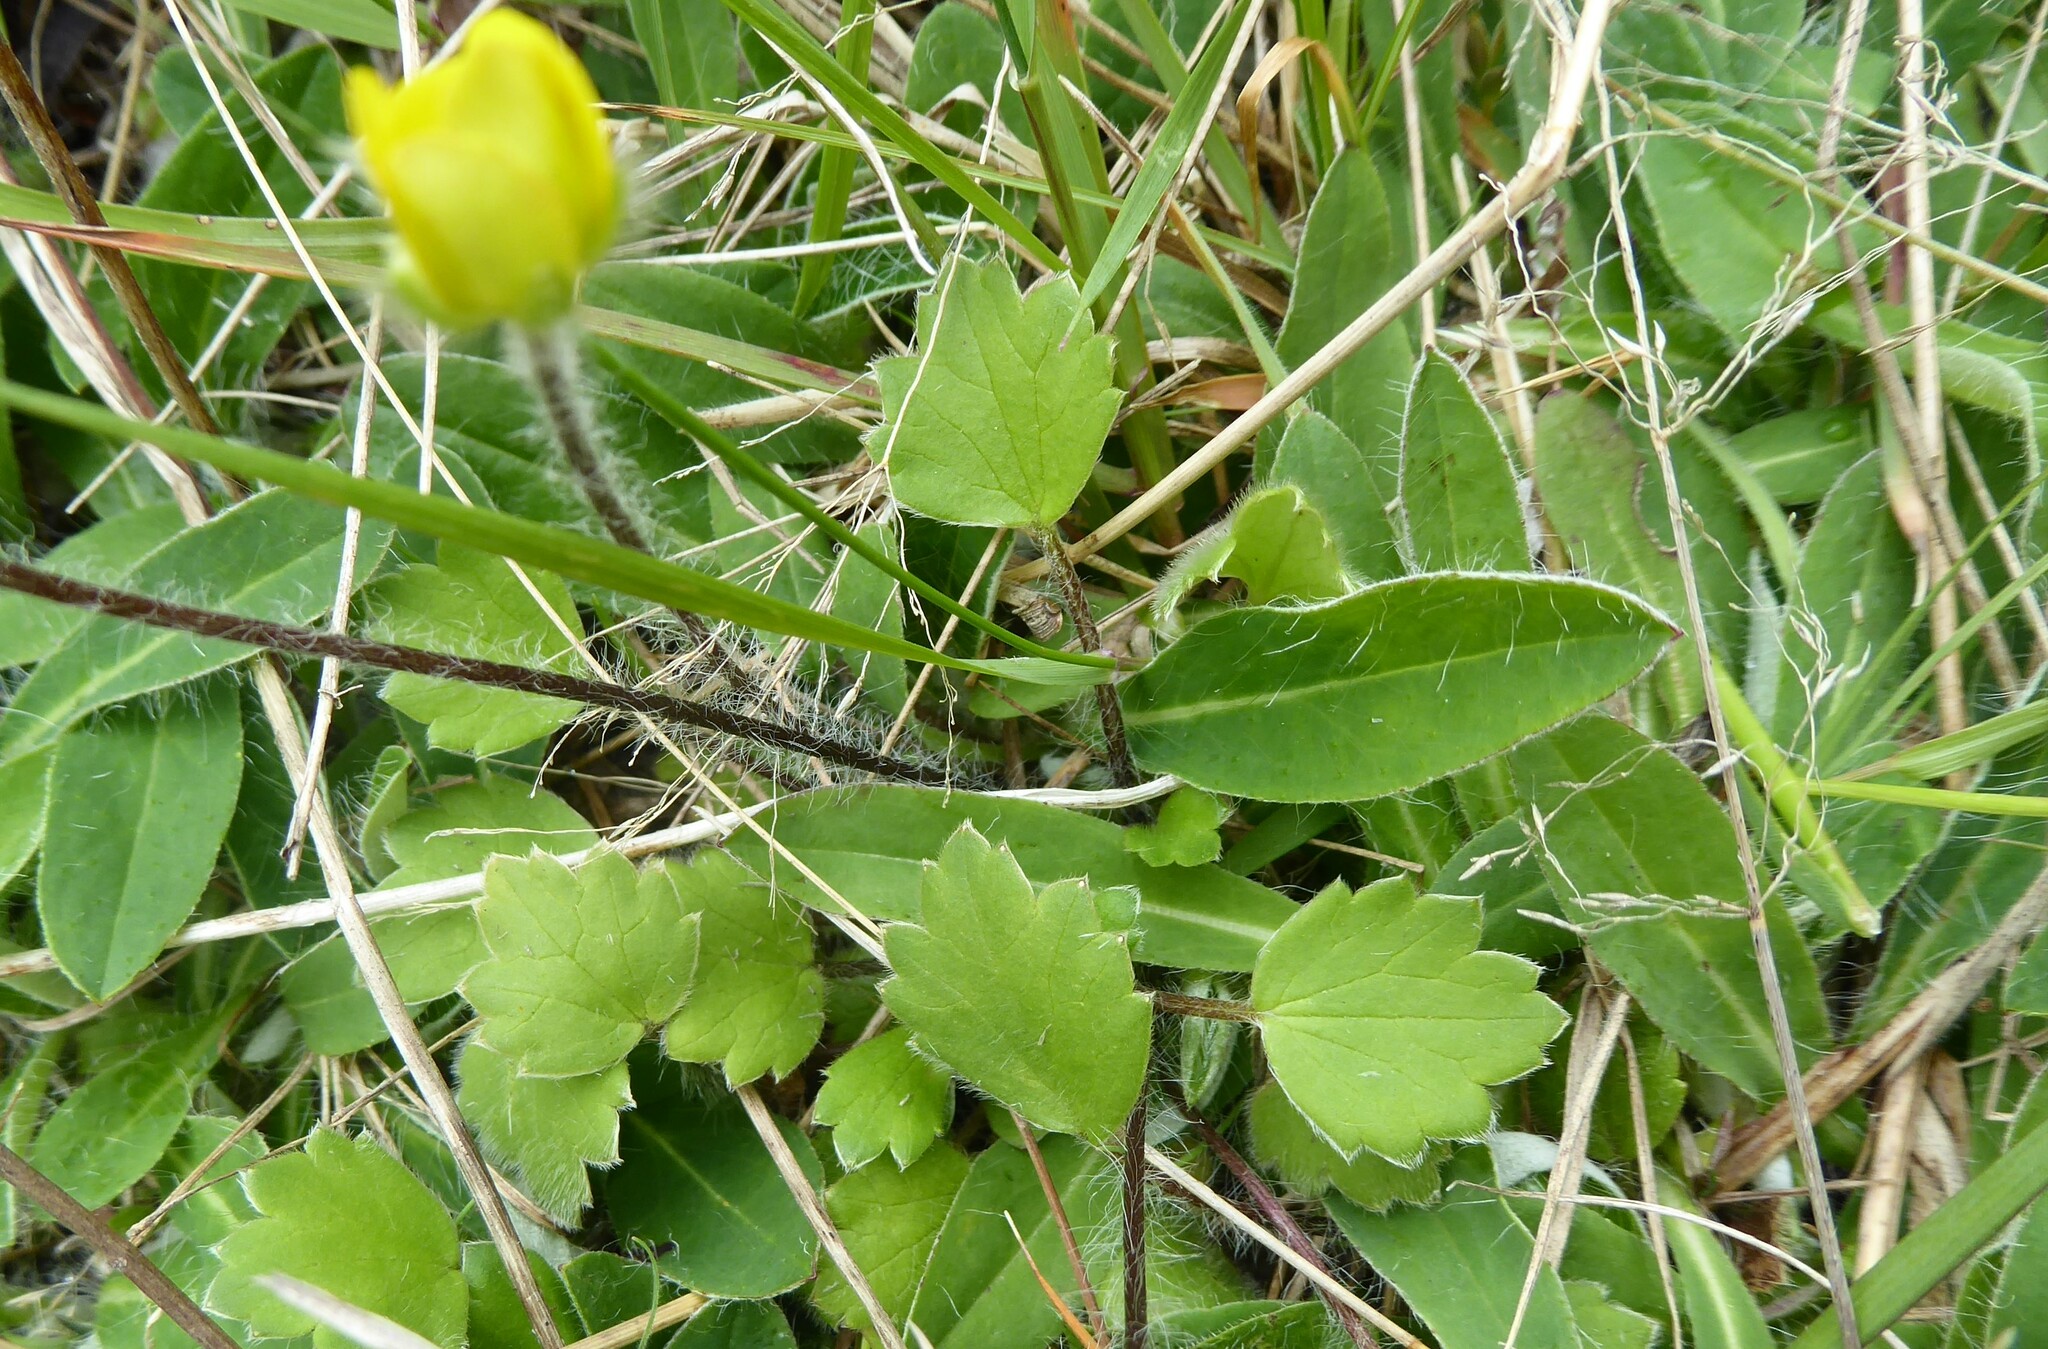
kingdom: Plantae
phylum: Tracheophyta
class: Magnoliopsida
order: Ranunculales
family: Ranunculaceae
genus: Ranunculus
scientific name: Ranunculus multiscapus
